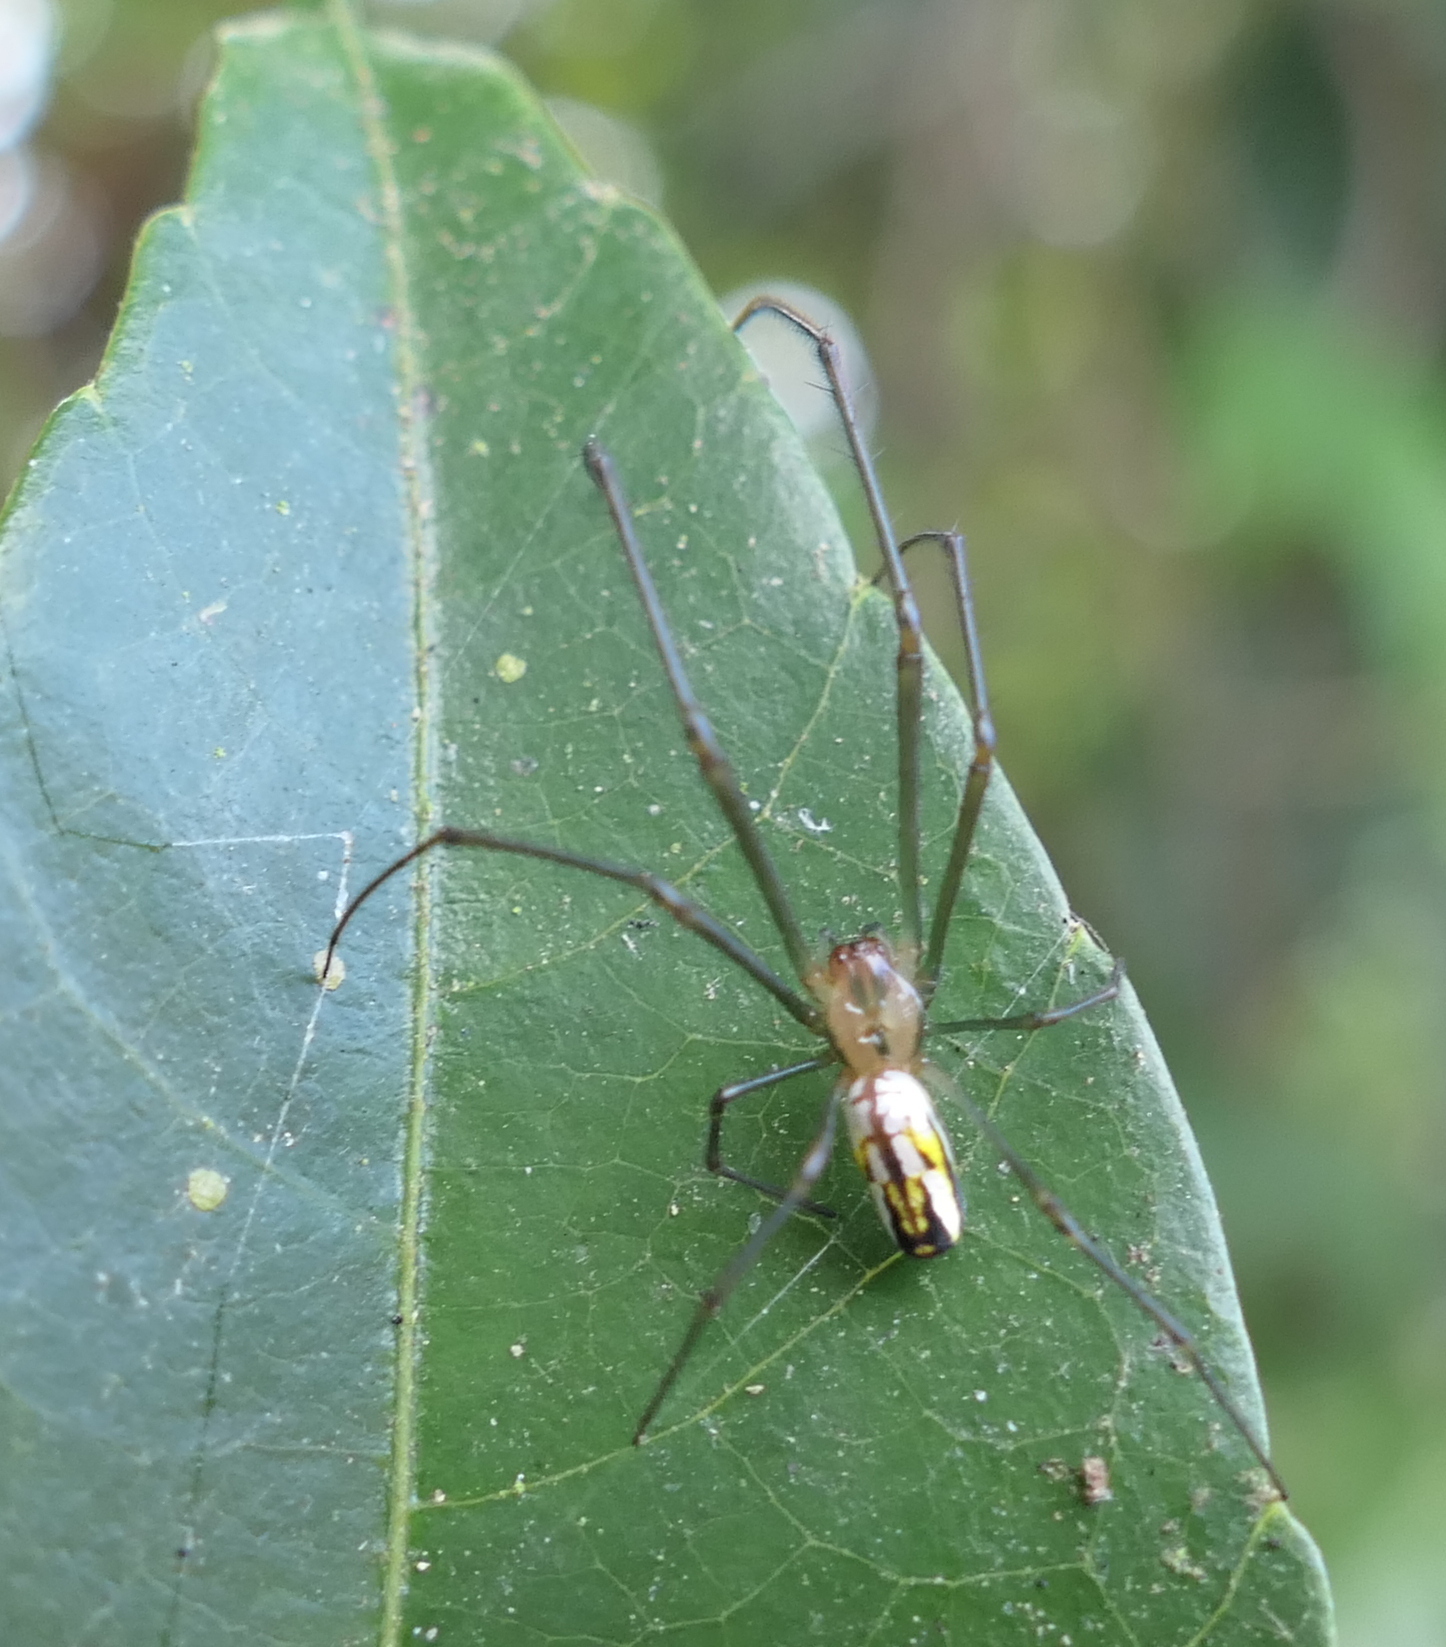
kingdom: Animalia
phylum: Arthropoda
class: Arachnida
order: Araneae
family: Tetragnathidae
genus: Leucauge
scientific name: Leucauge argyra
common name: Longjawed orb weavers
